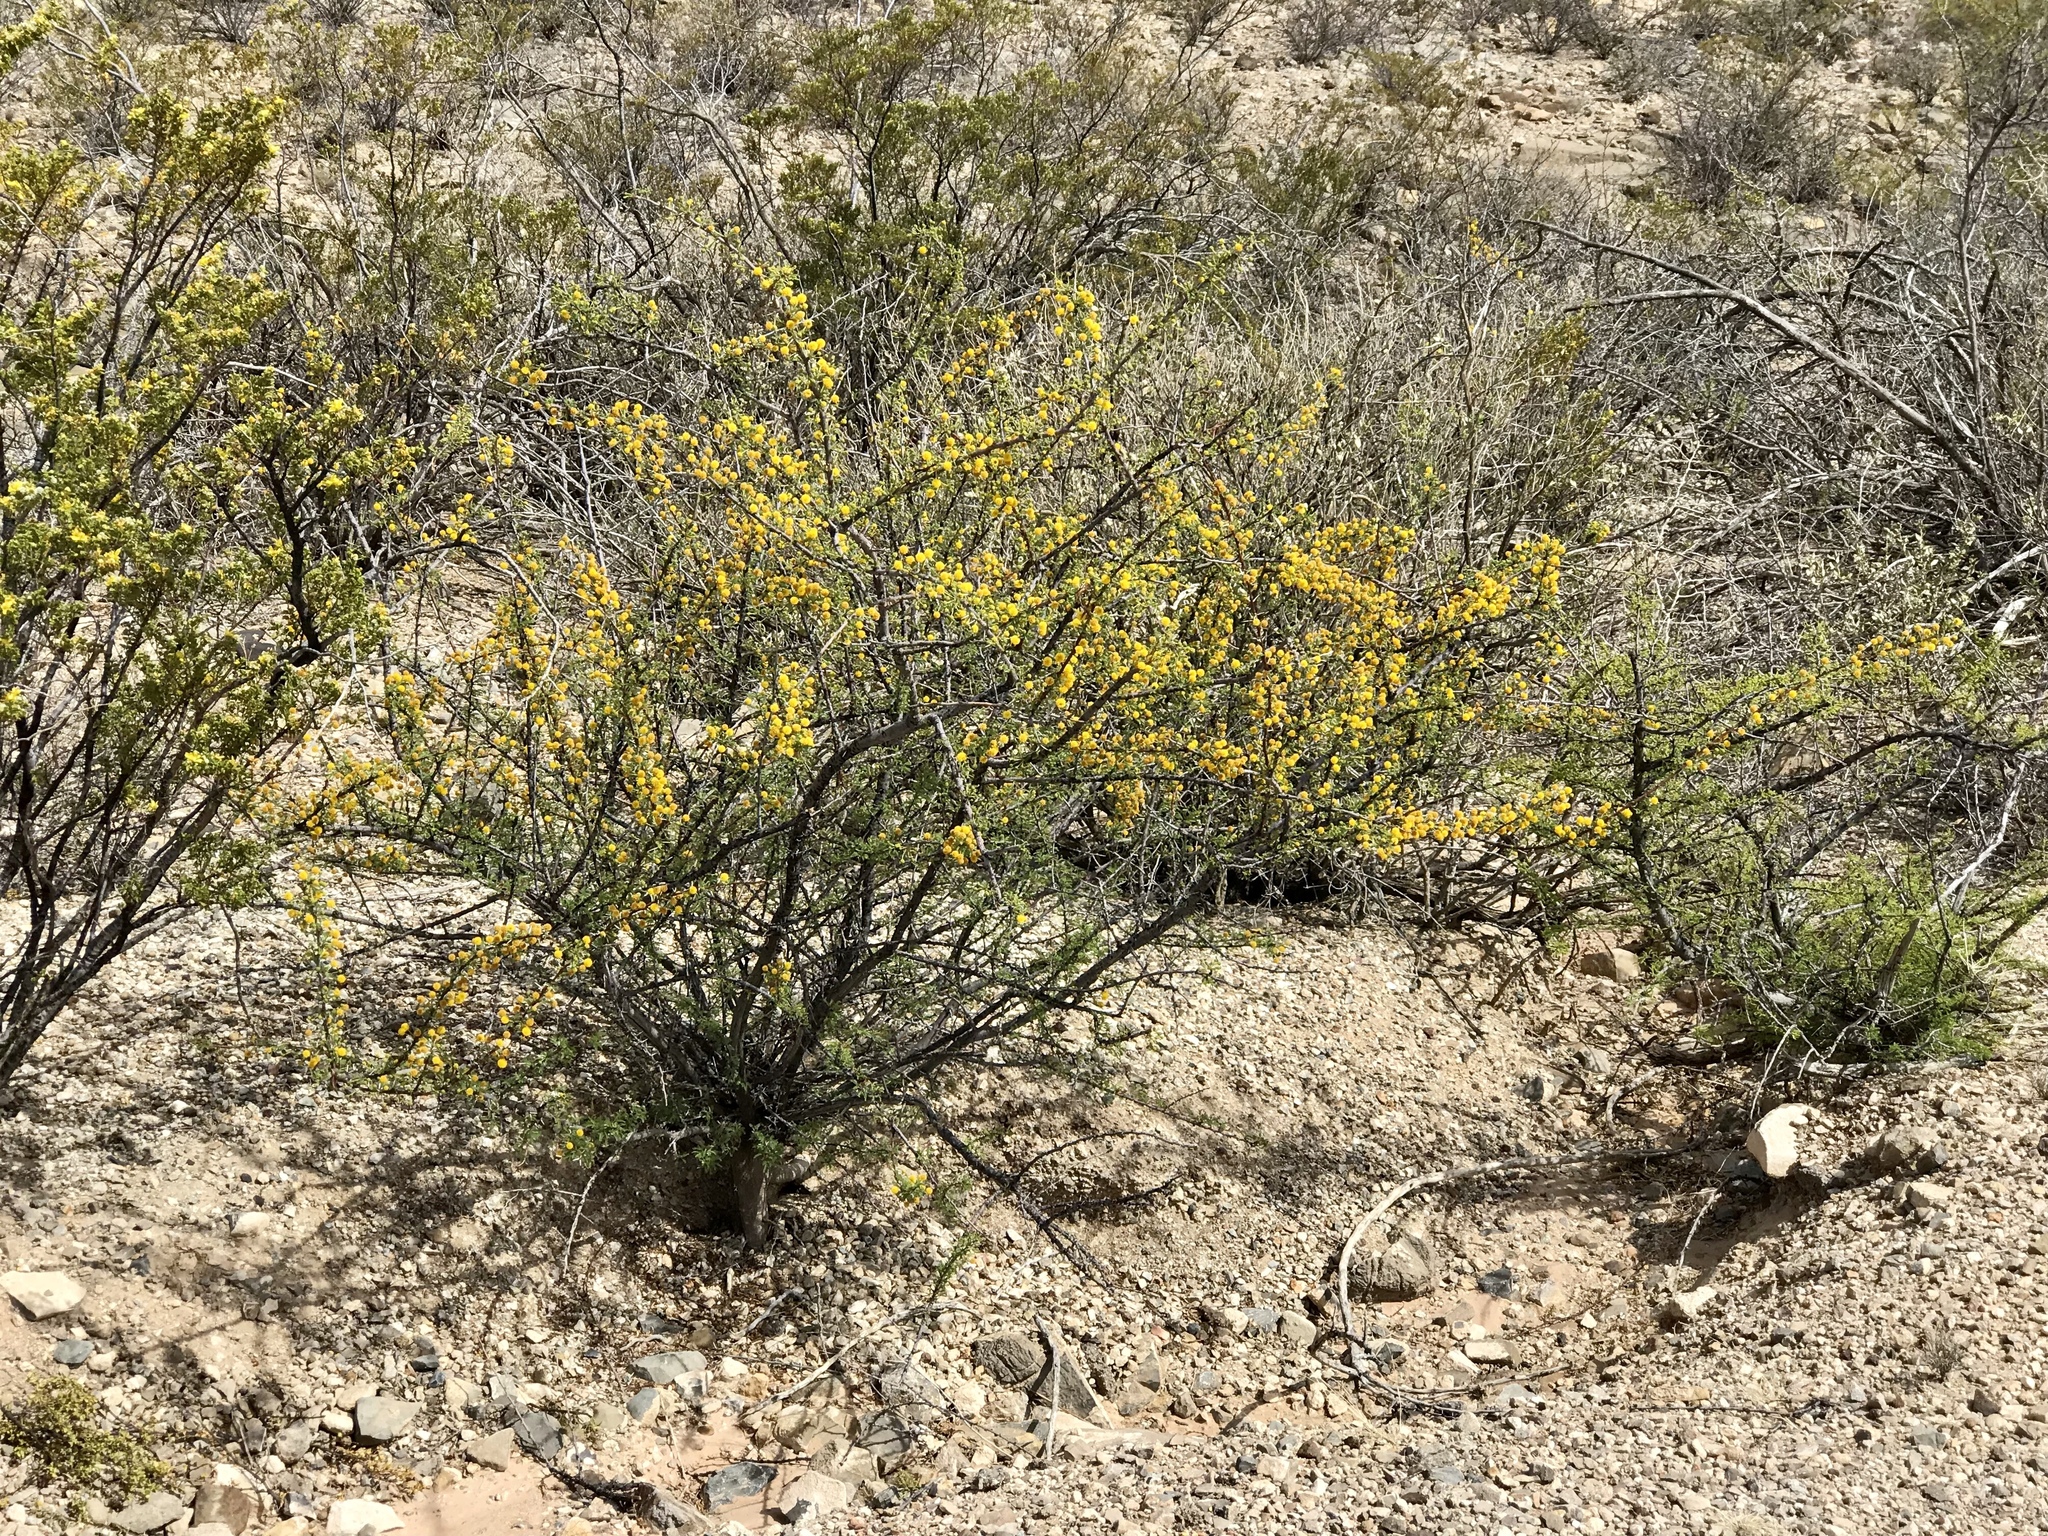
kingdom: Plantae
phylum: Tracheophyta
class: Magnoliopsida
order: Fabales
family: Fabaceae
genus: Vachellia
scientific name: Vachellia vernicosa
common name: Viscid acacia
